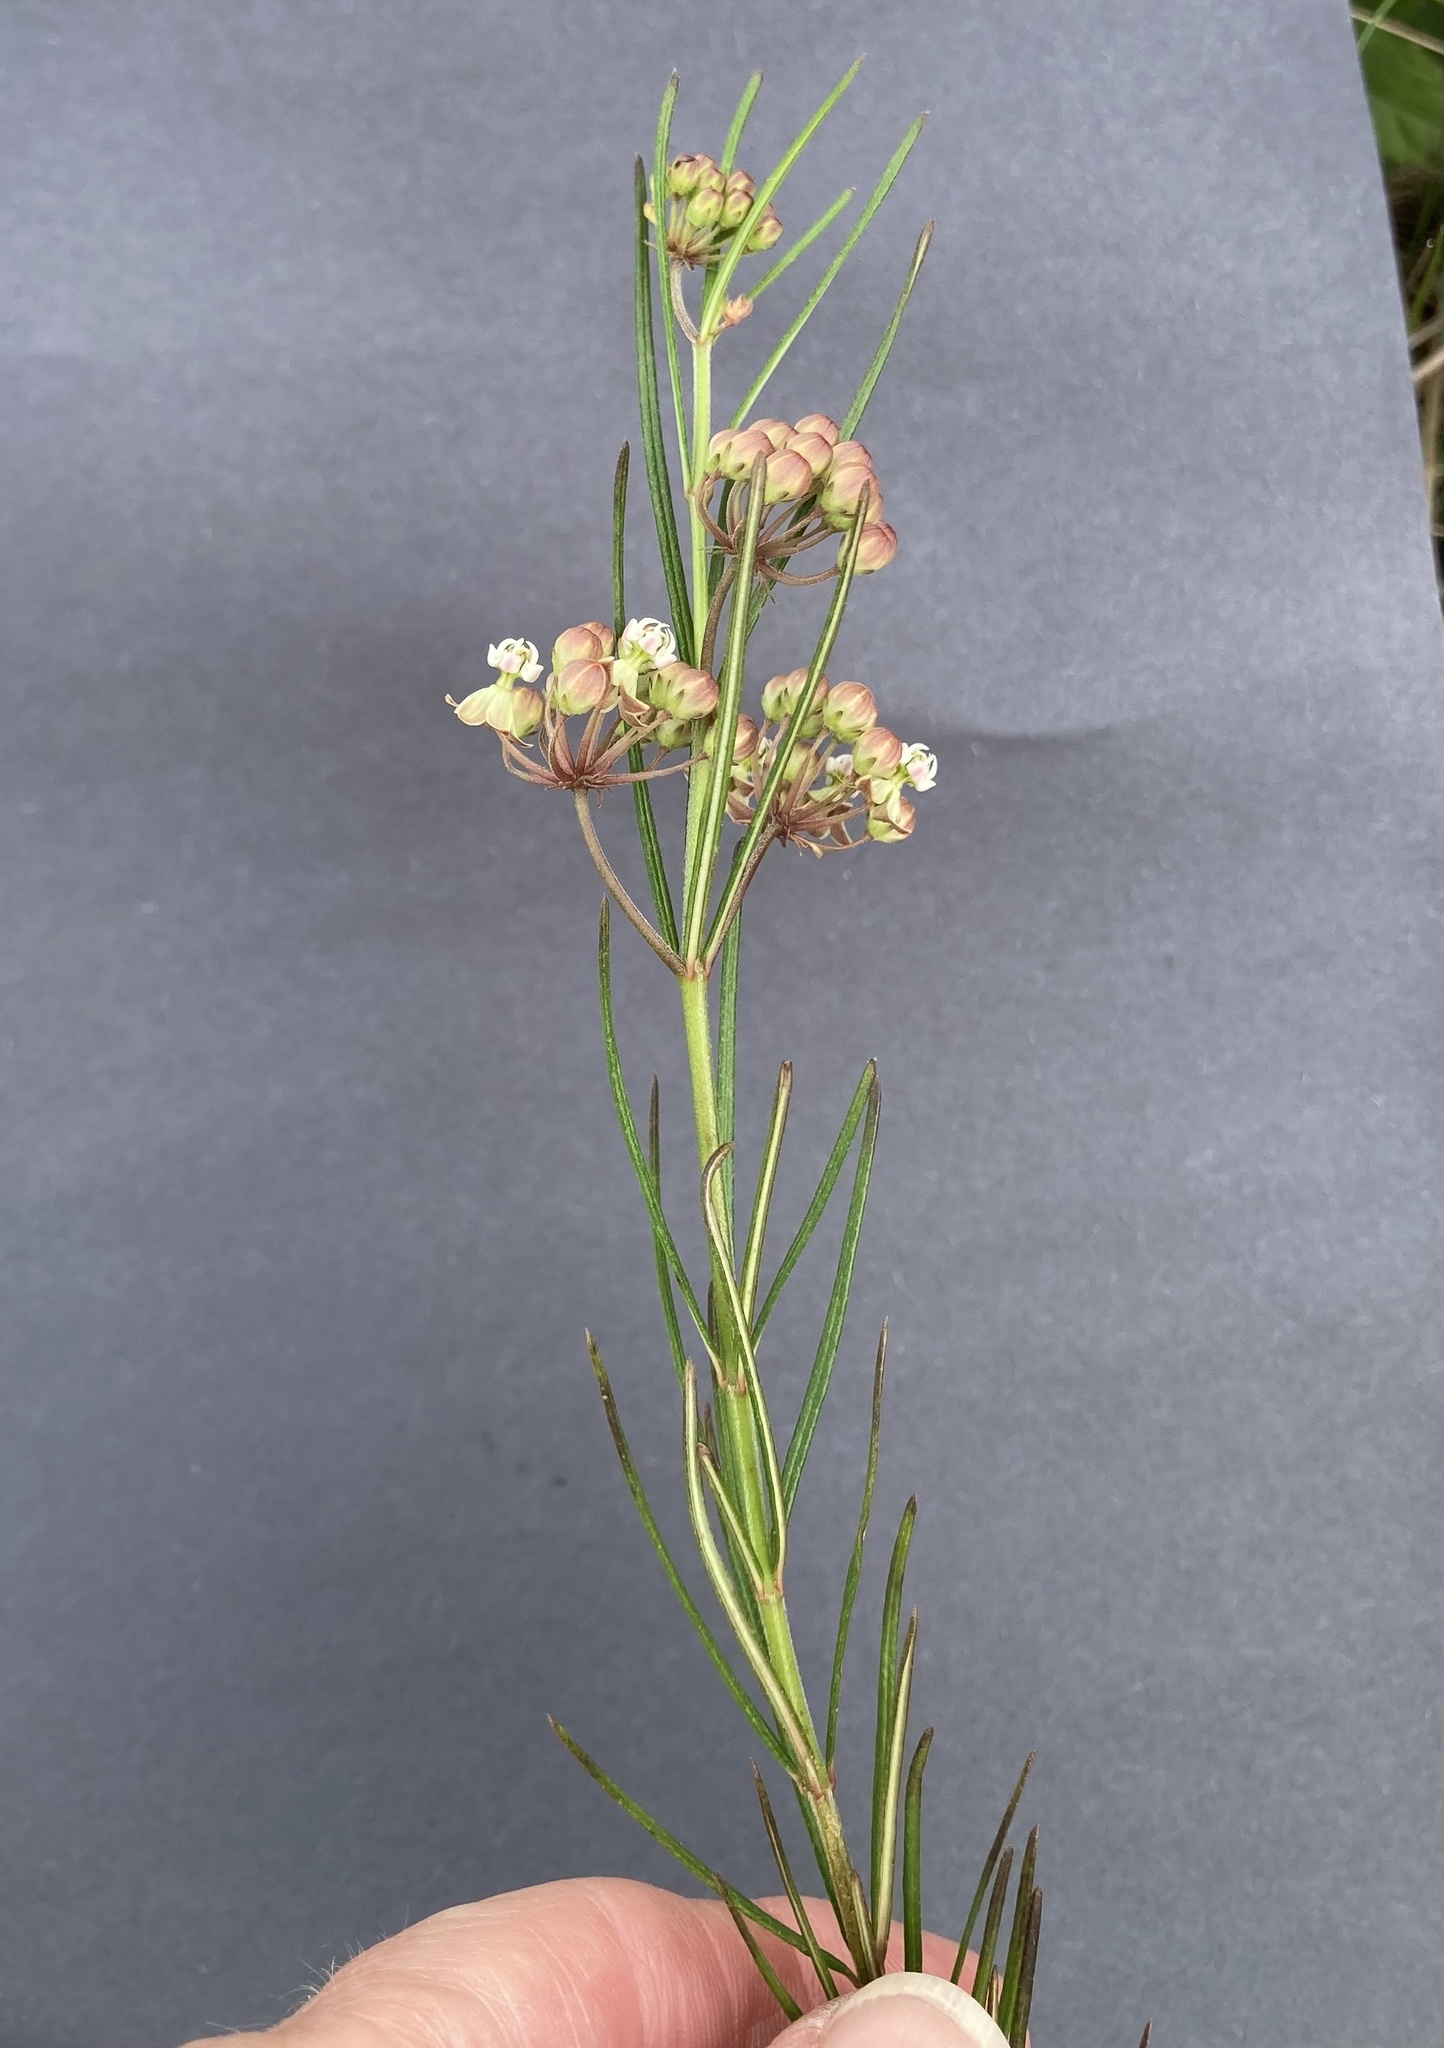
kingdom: Plantae
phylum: Tracheophyta
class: Magnoliopsida
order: Gentianales
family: Apocynaceae
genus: Asclepias
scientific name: Asclepias verticillata
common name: Eastern whorled milkweed
